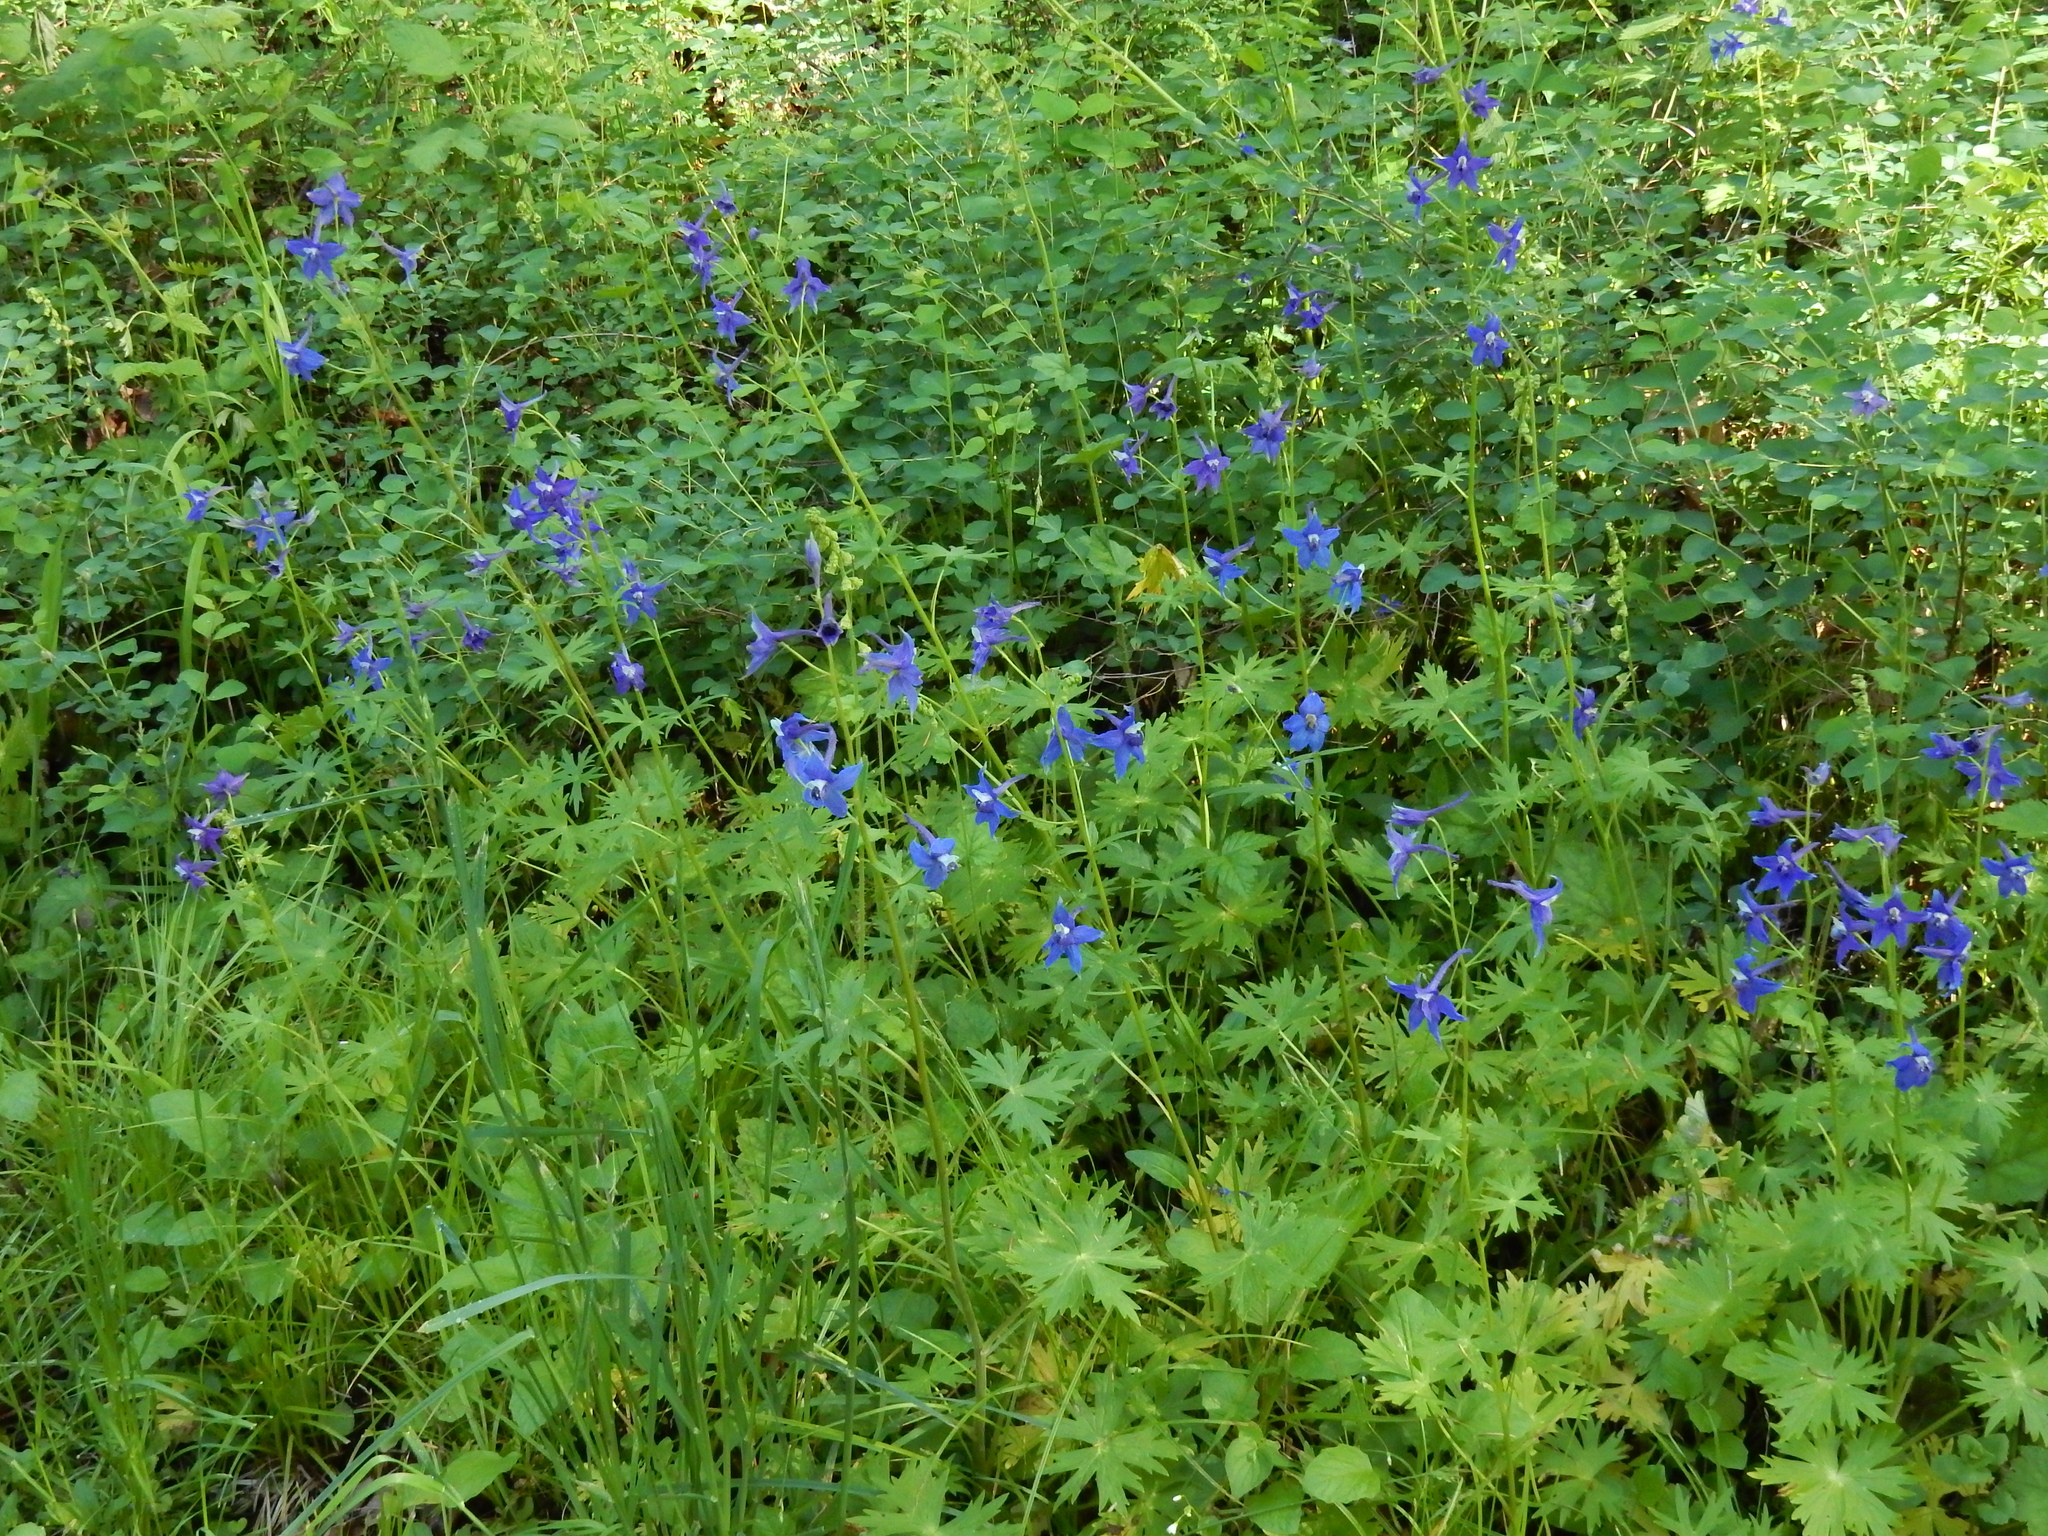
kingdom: Plantae
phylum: Tracheophyta
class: Magnoliopsida
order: Ranunculales
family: Ranunculaceae
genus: Delphinium
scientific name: Delphinium trolliifolium
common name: Cow-poison
